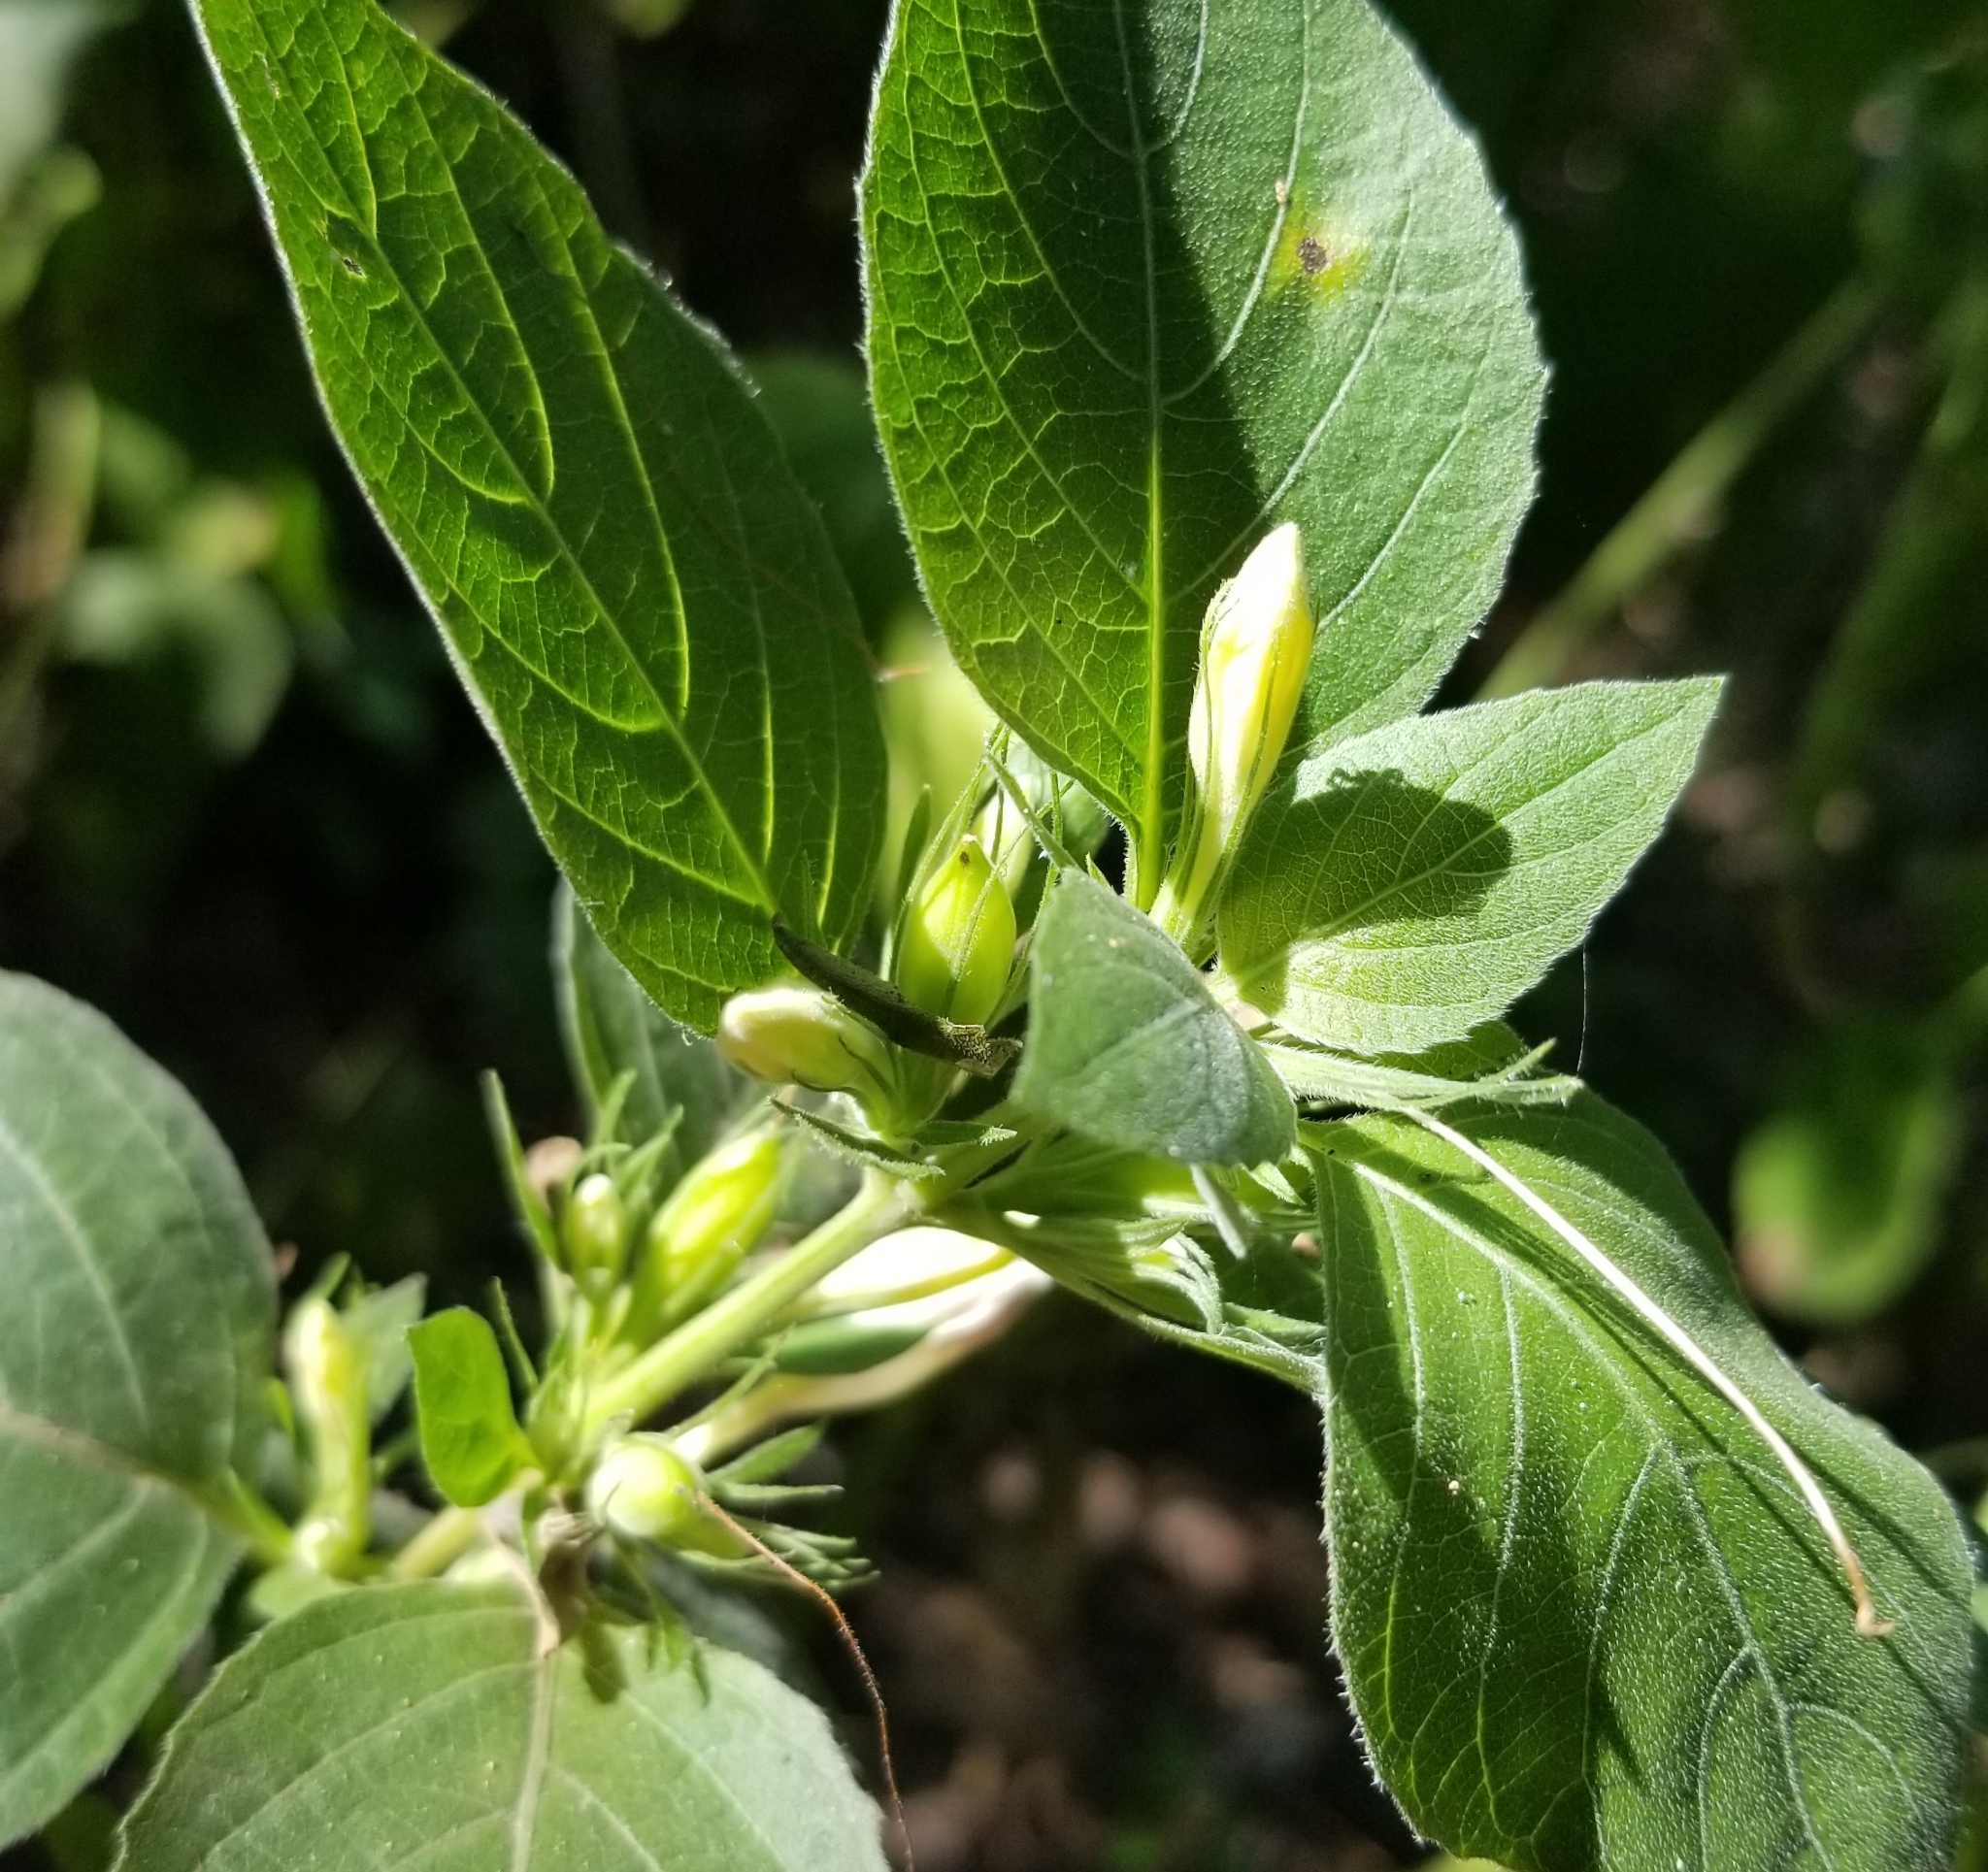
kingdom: Plantae
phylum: Tracheophyta
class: Magnoliopsida
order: Lamiales
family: Acanthaceae
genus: Ruellia
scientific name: Ruellia drummondiana
